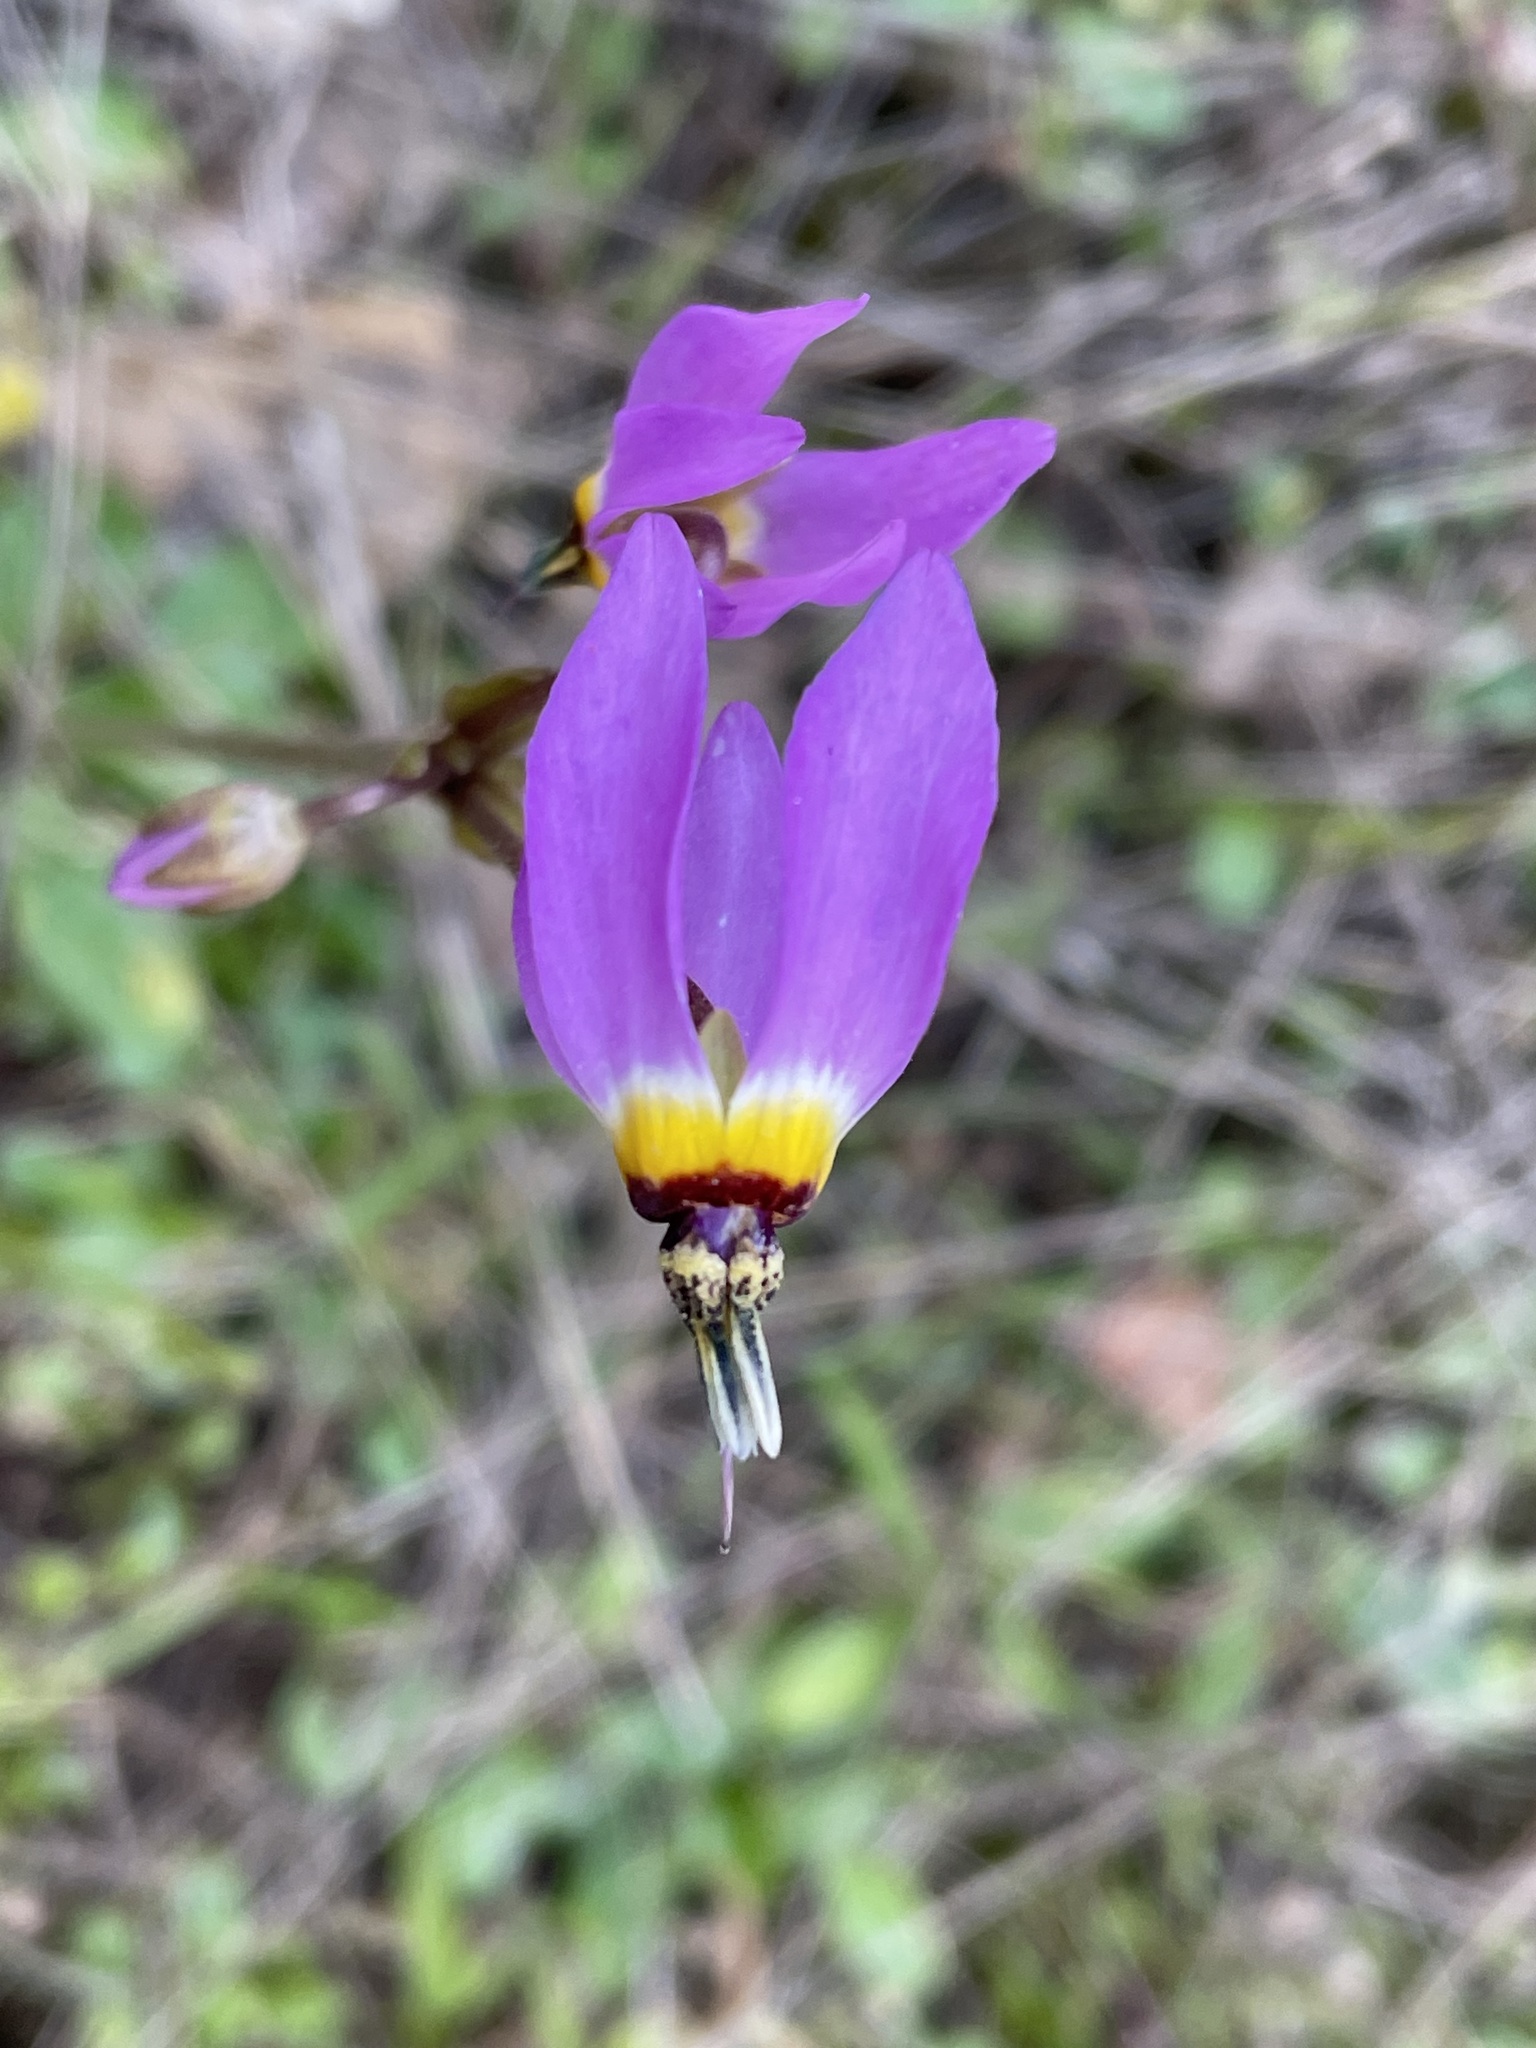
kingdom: Plantae
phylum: Tracheophyta
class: Magnoliopsida
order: Ericales
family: Primulaceae
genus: Dodecatheon
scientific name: Dodecatheon clevelandii
